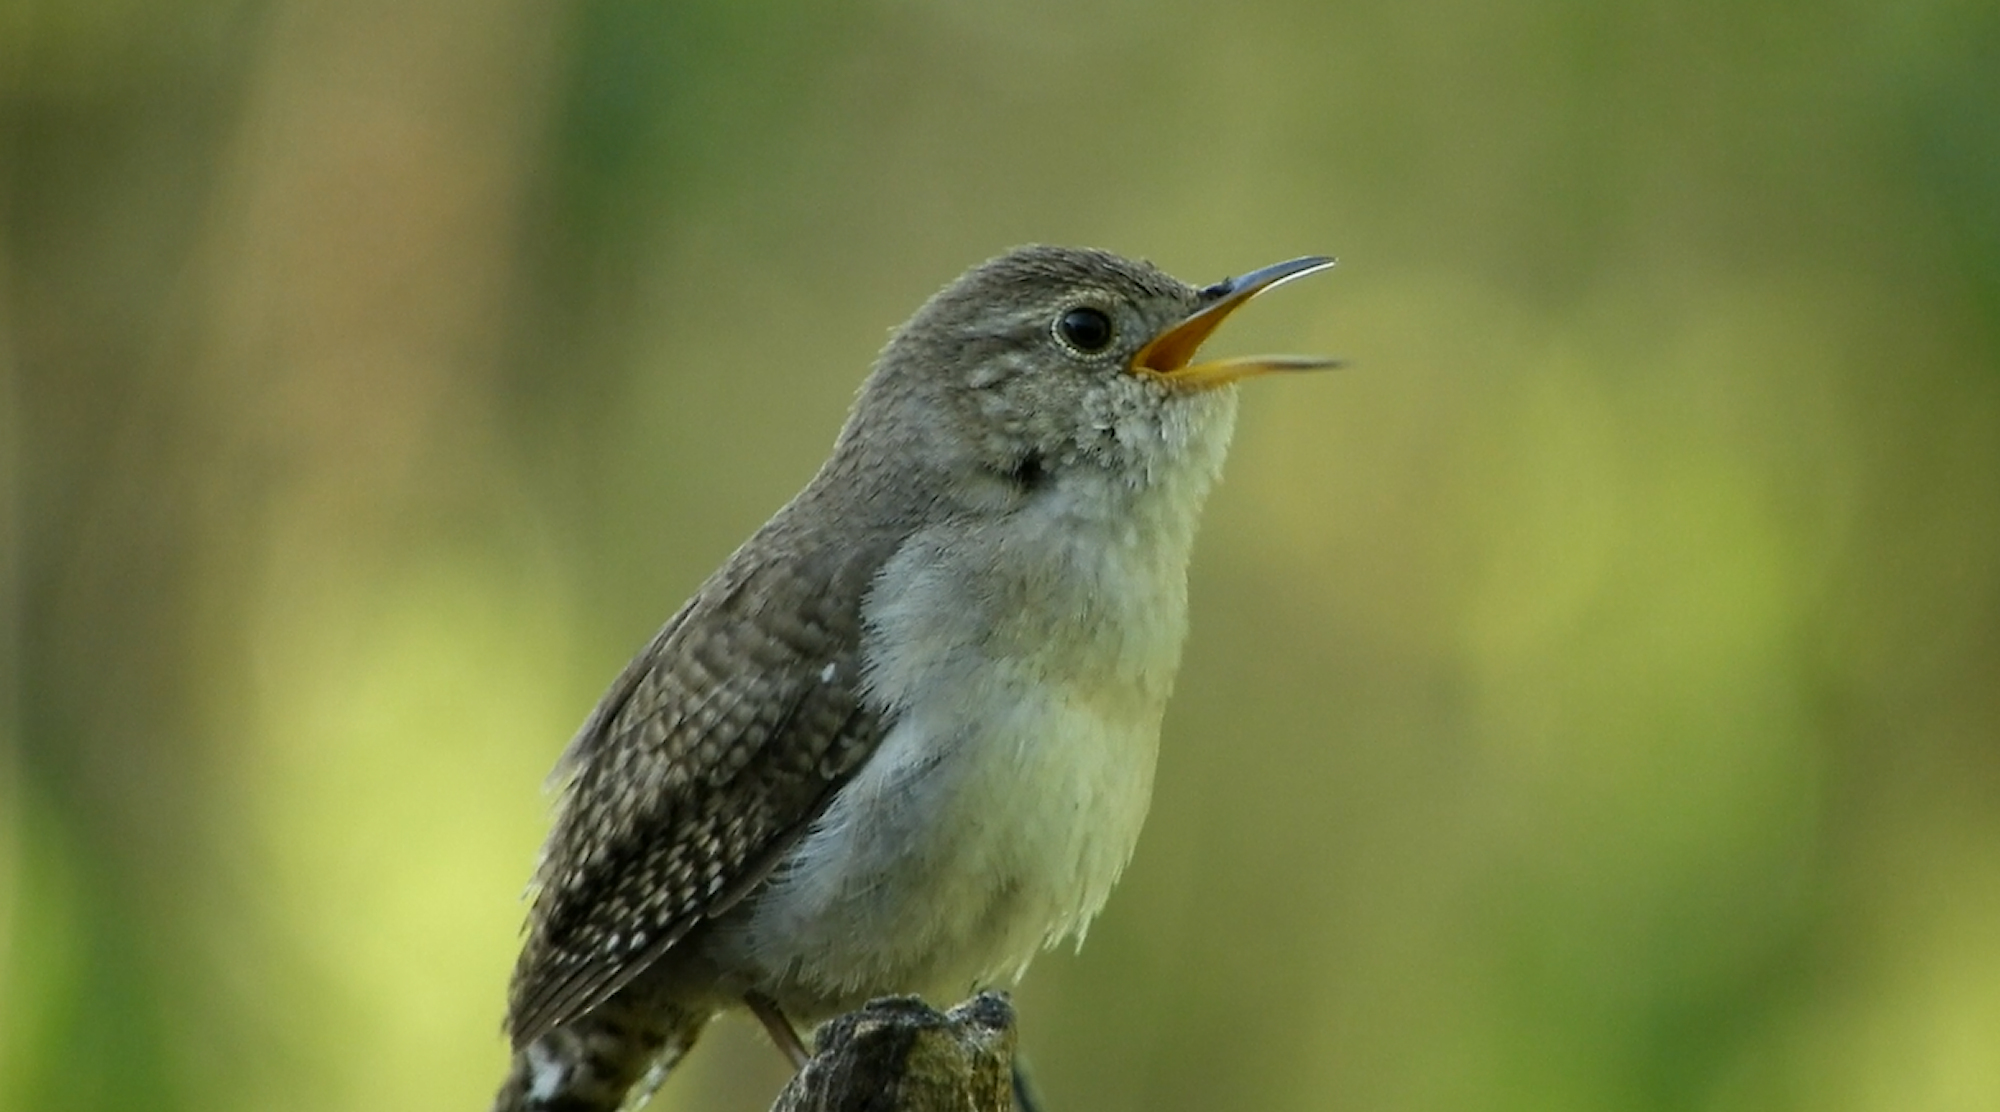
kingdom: Animalia
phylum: Chordata
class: Aves
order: Passeriformes
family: Troglodytidae
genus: Troglodytes
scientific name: Troglodytes aedon
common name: House wren
